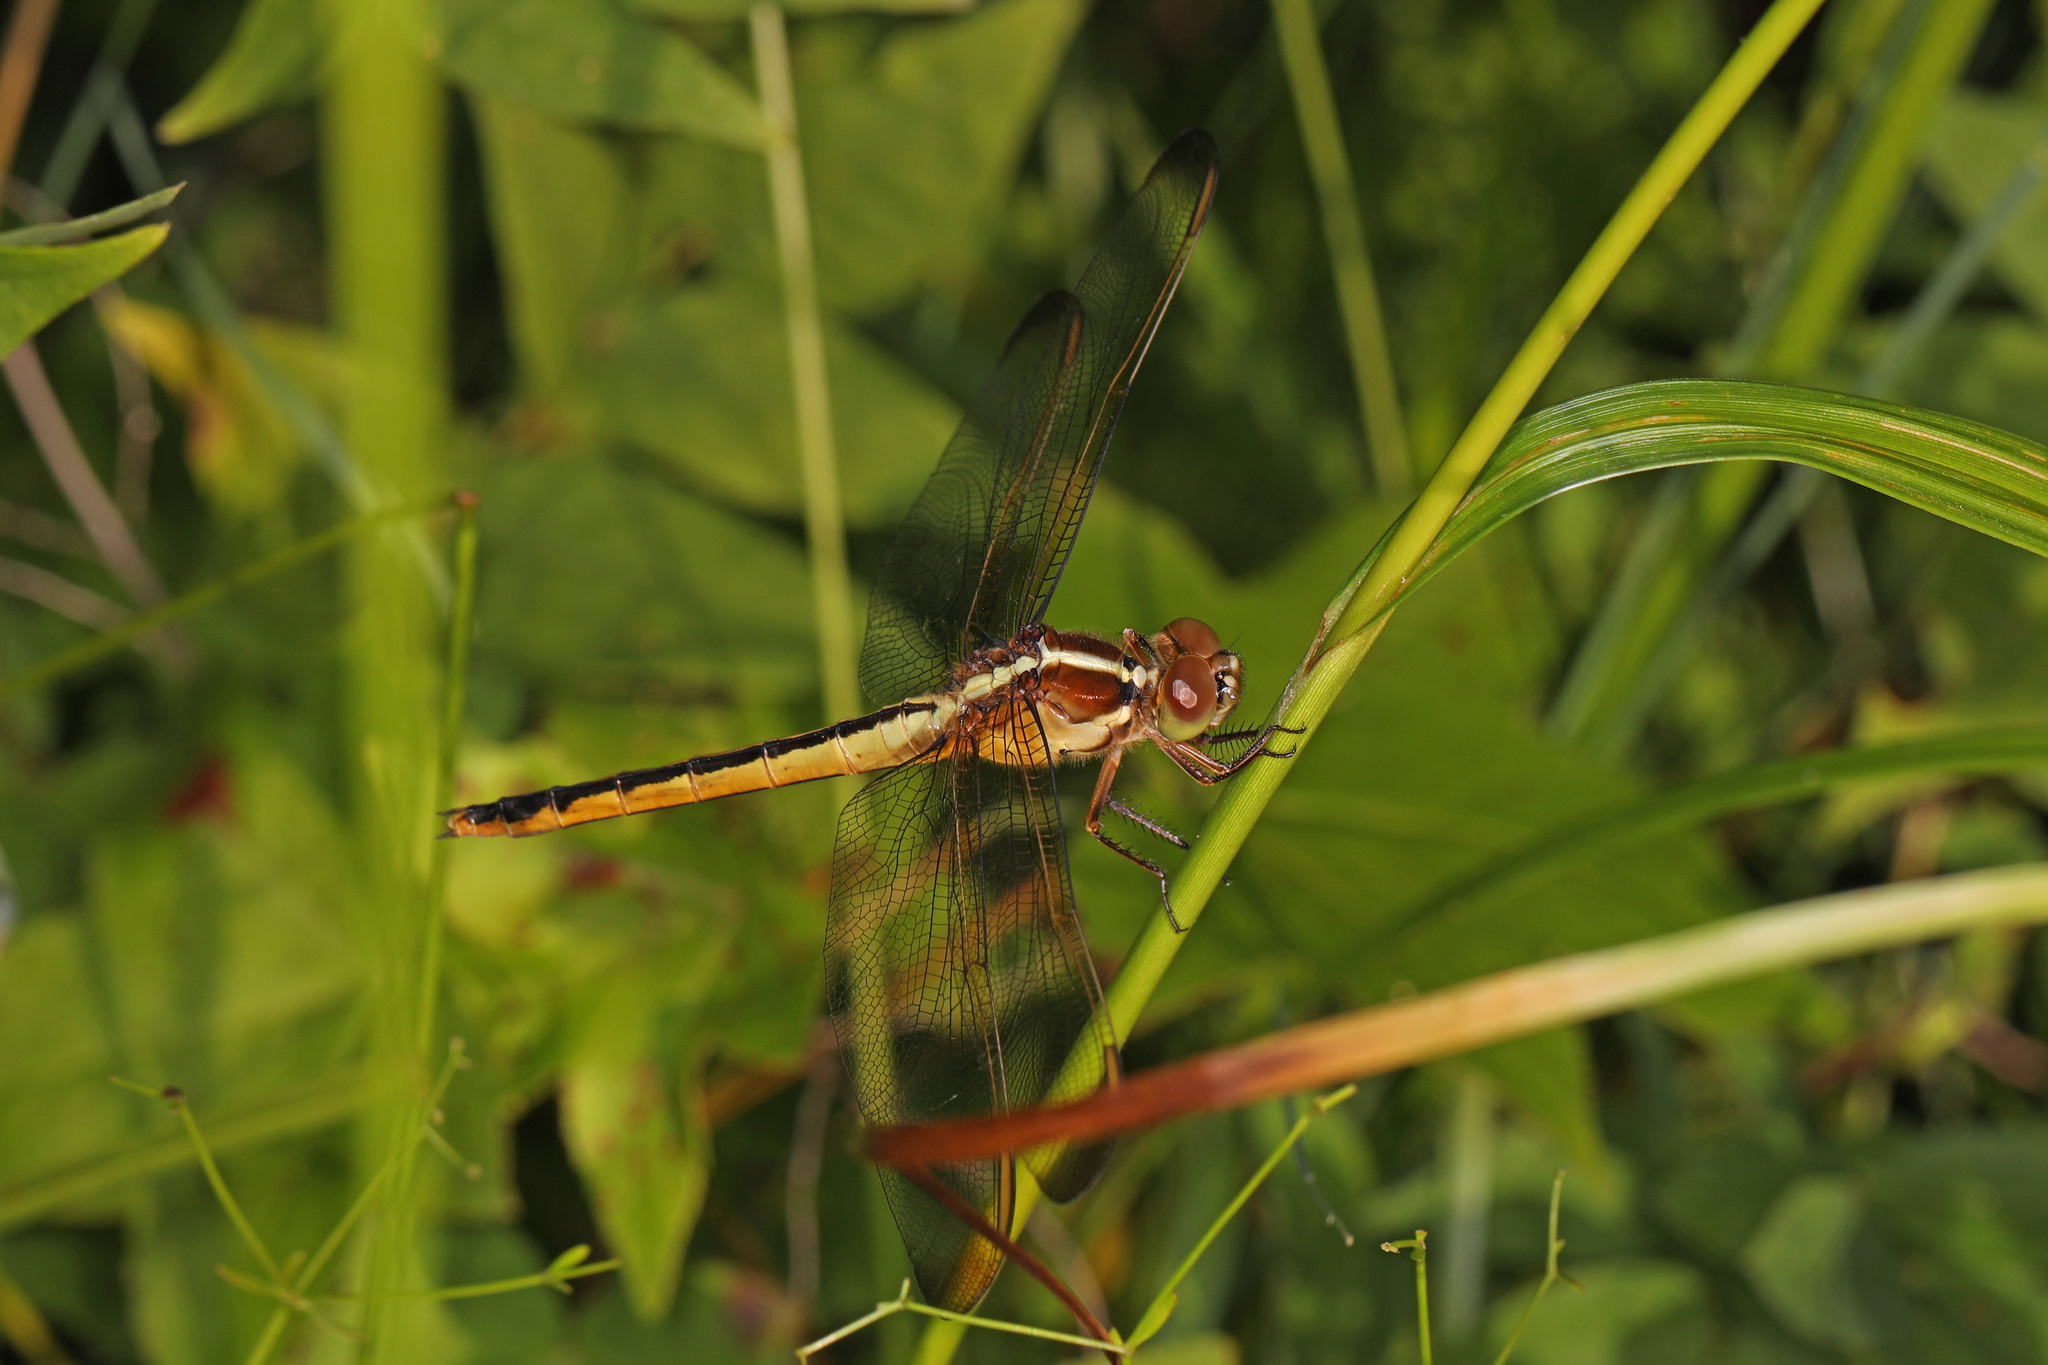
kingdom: Animalia
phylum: Arthropoda
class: Insecta
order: Odonata
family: Libellulidae
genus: Libellula
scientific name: Libellula needhami
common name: Needham's skimmer
